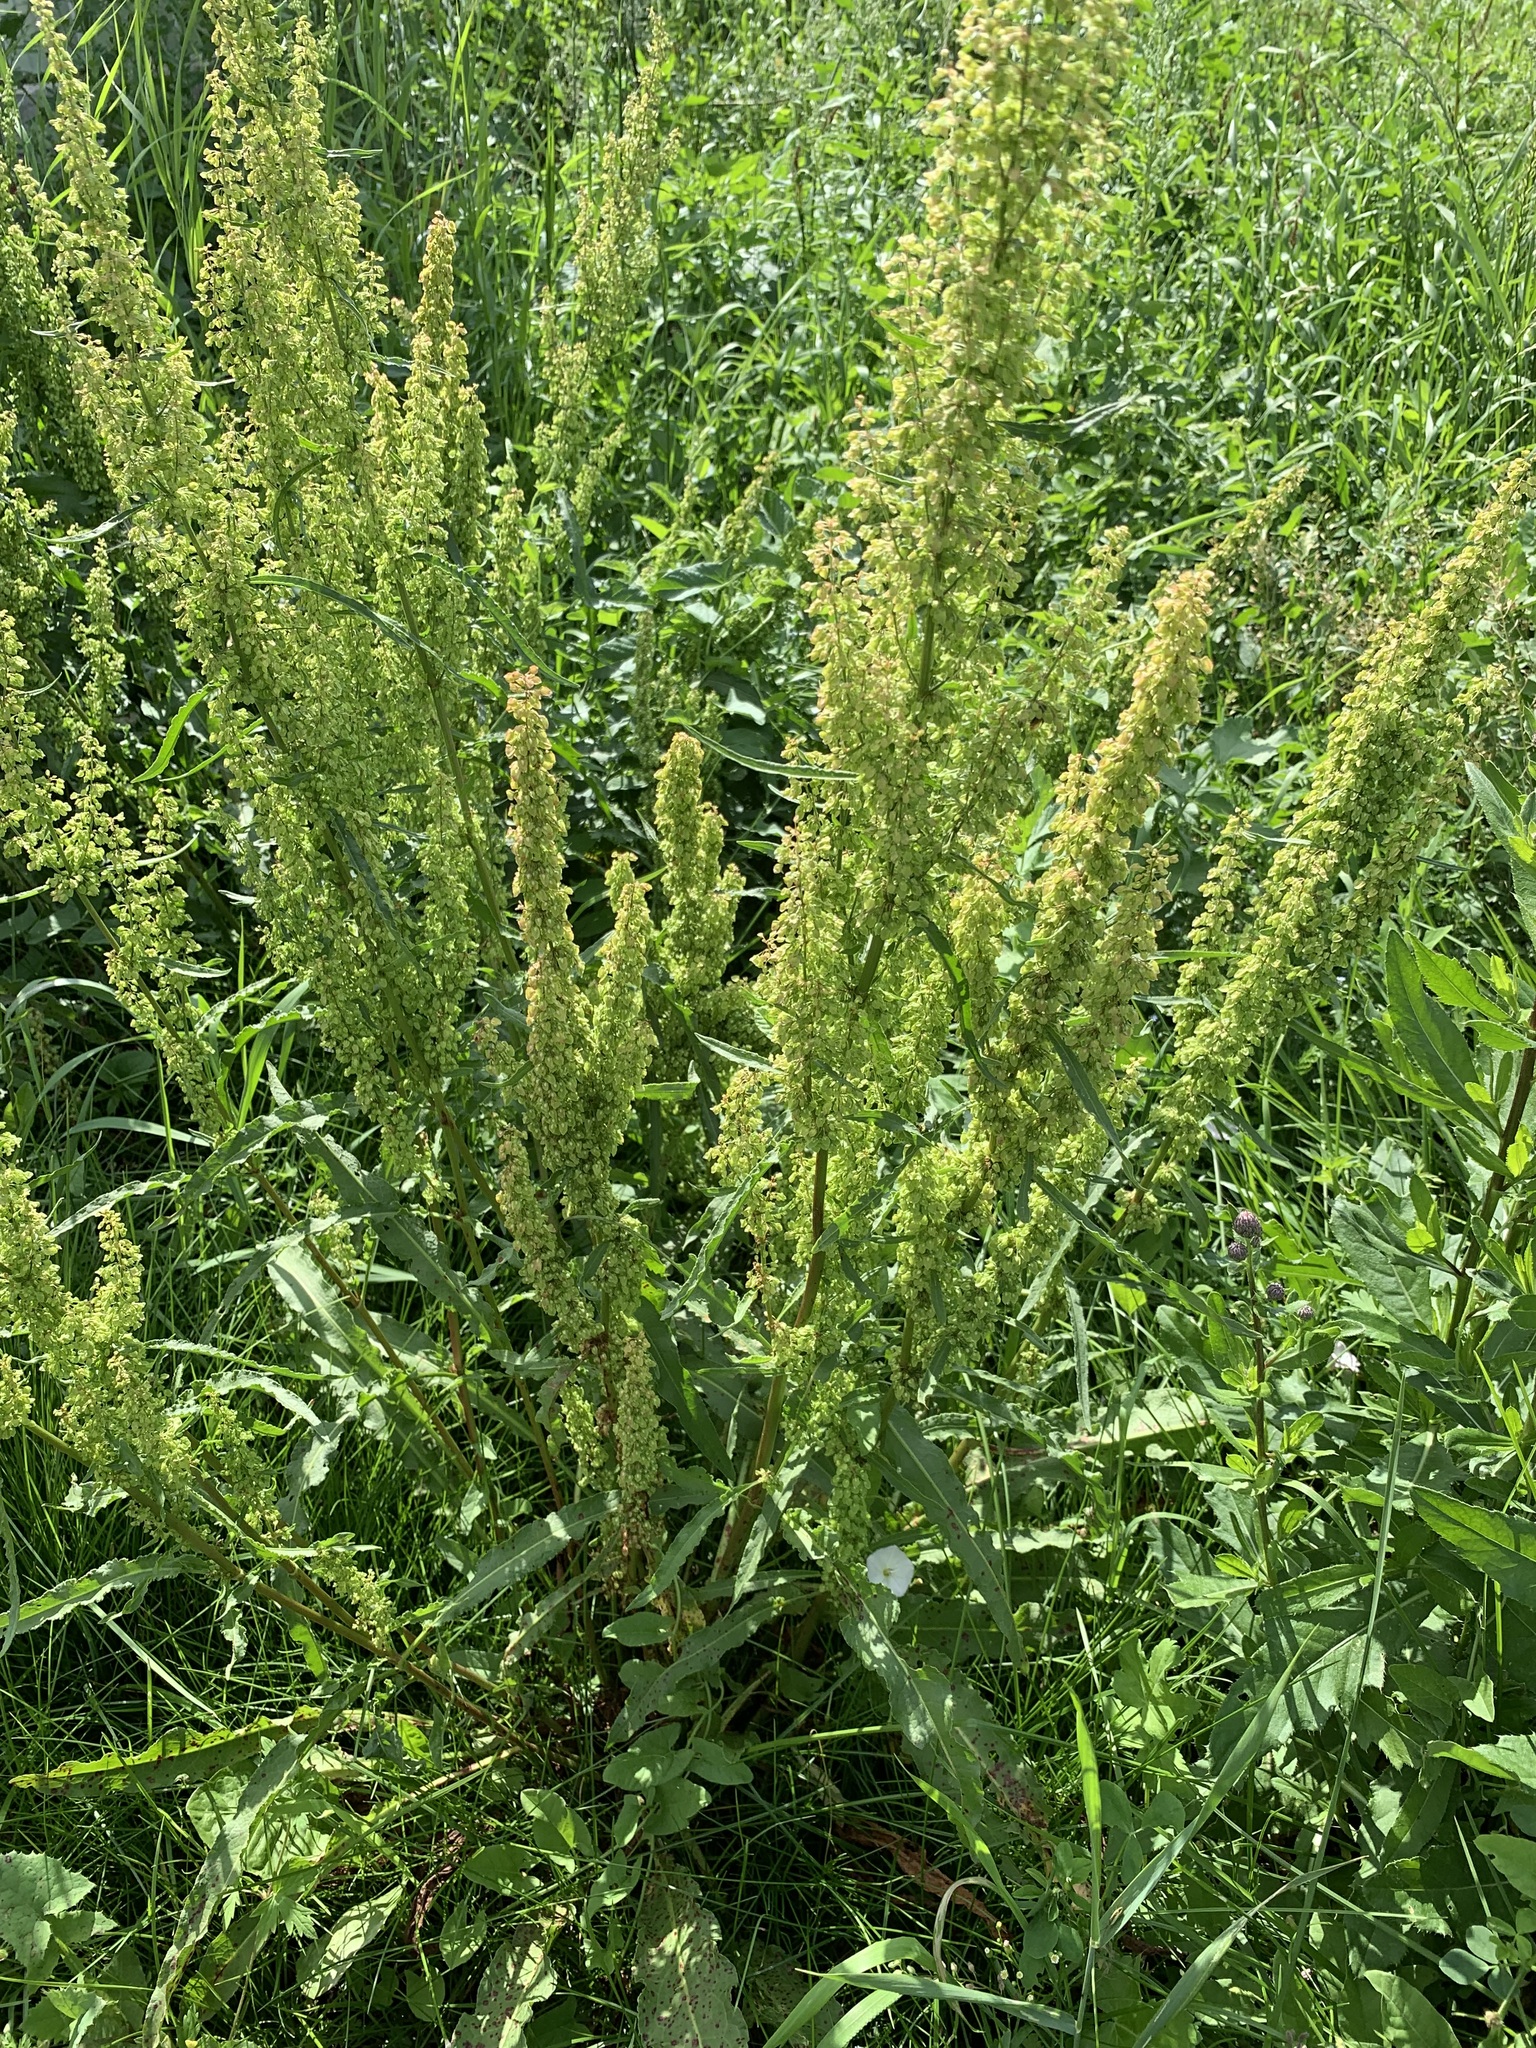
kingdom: Plantae
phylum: Tracheophyta
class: Magnoliopsida
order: Caryophyllales
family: Polygonaceae
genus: Rumex
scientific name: Rumex crispus
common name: Curled dock
